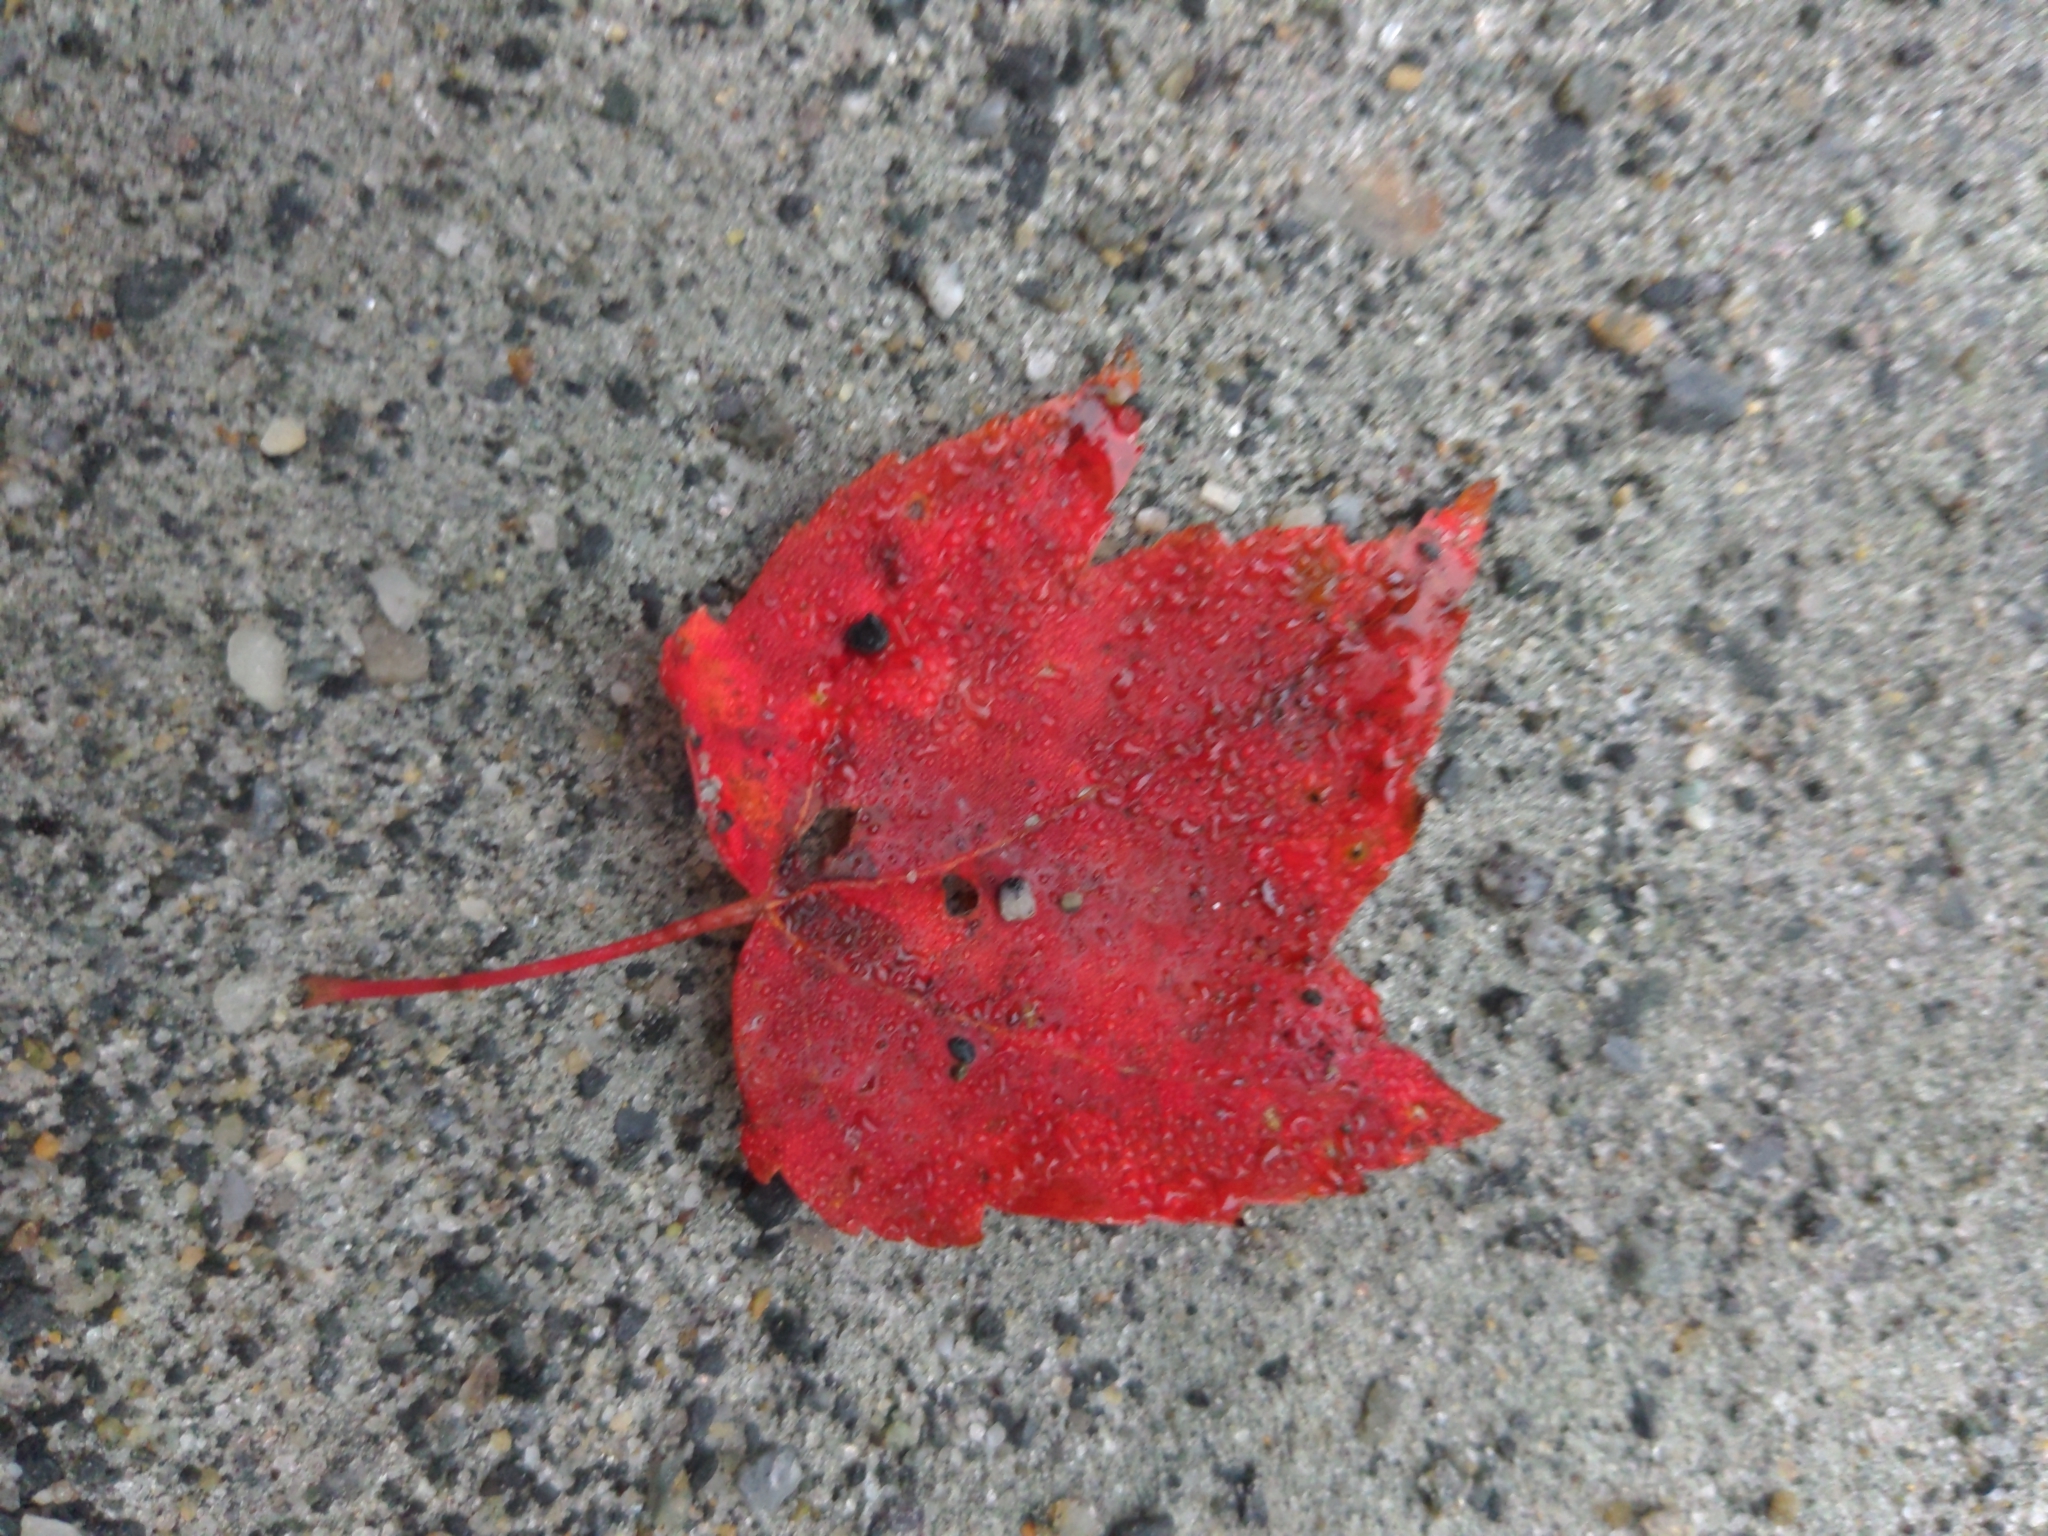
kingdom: Plantae
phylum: Tracheophyta
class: Magnoliopsida
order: Sapindales
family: Sapindaceae
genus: Acer
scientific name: Acer rubrum
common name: Red maple
